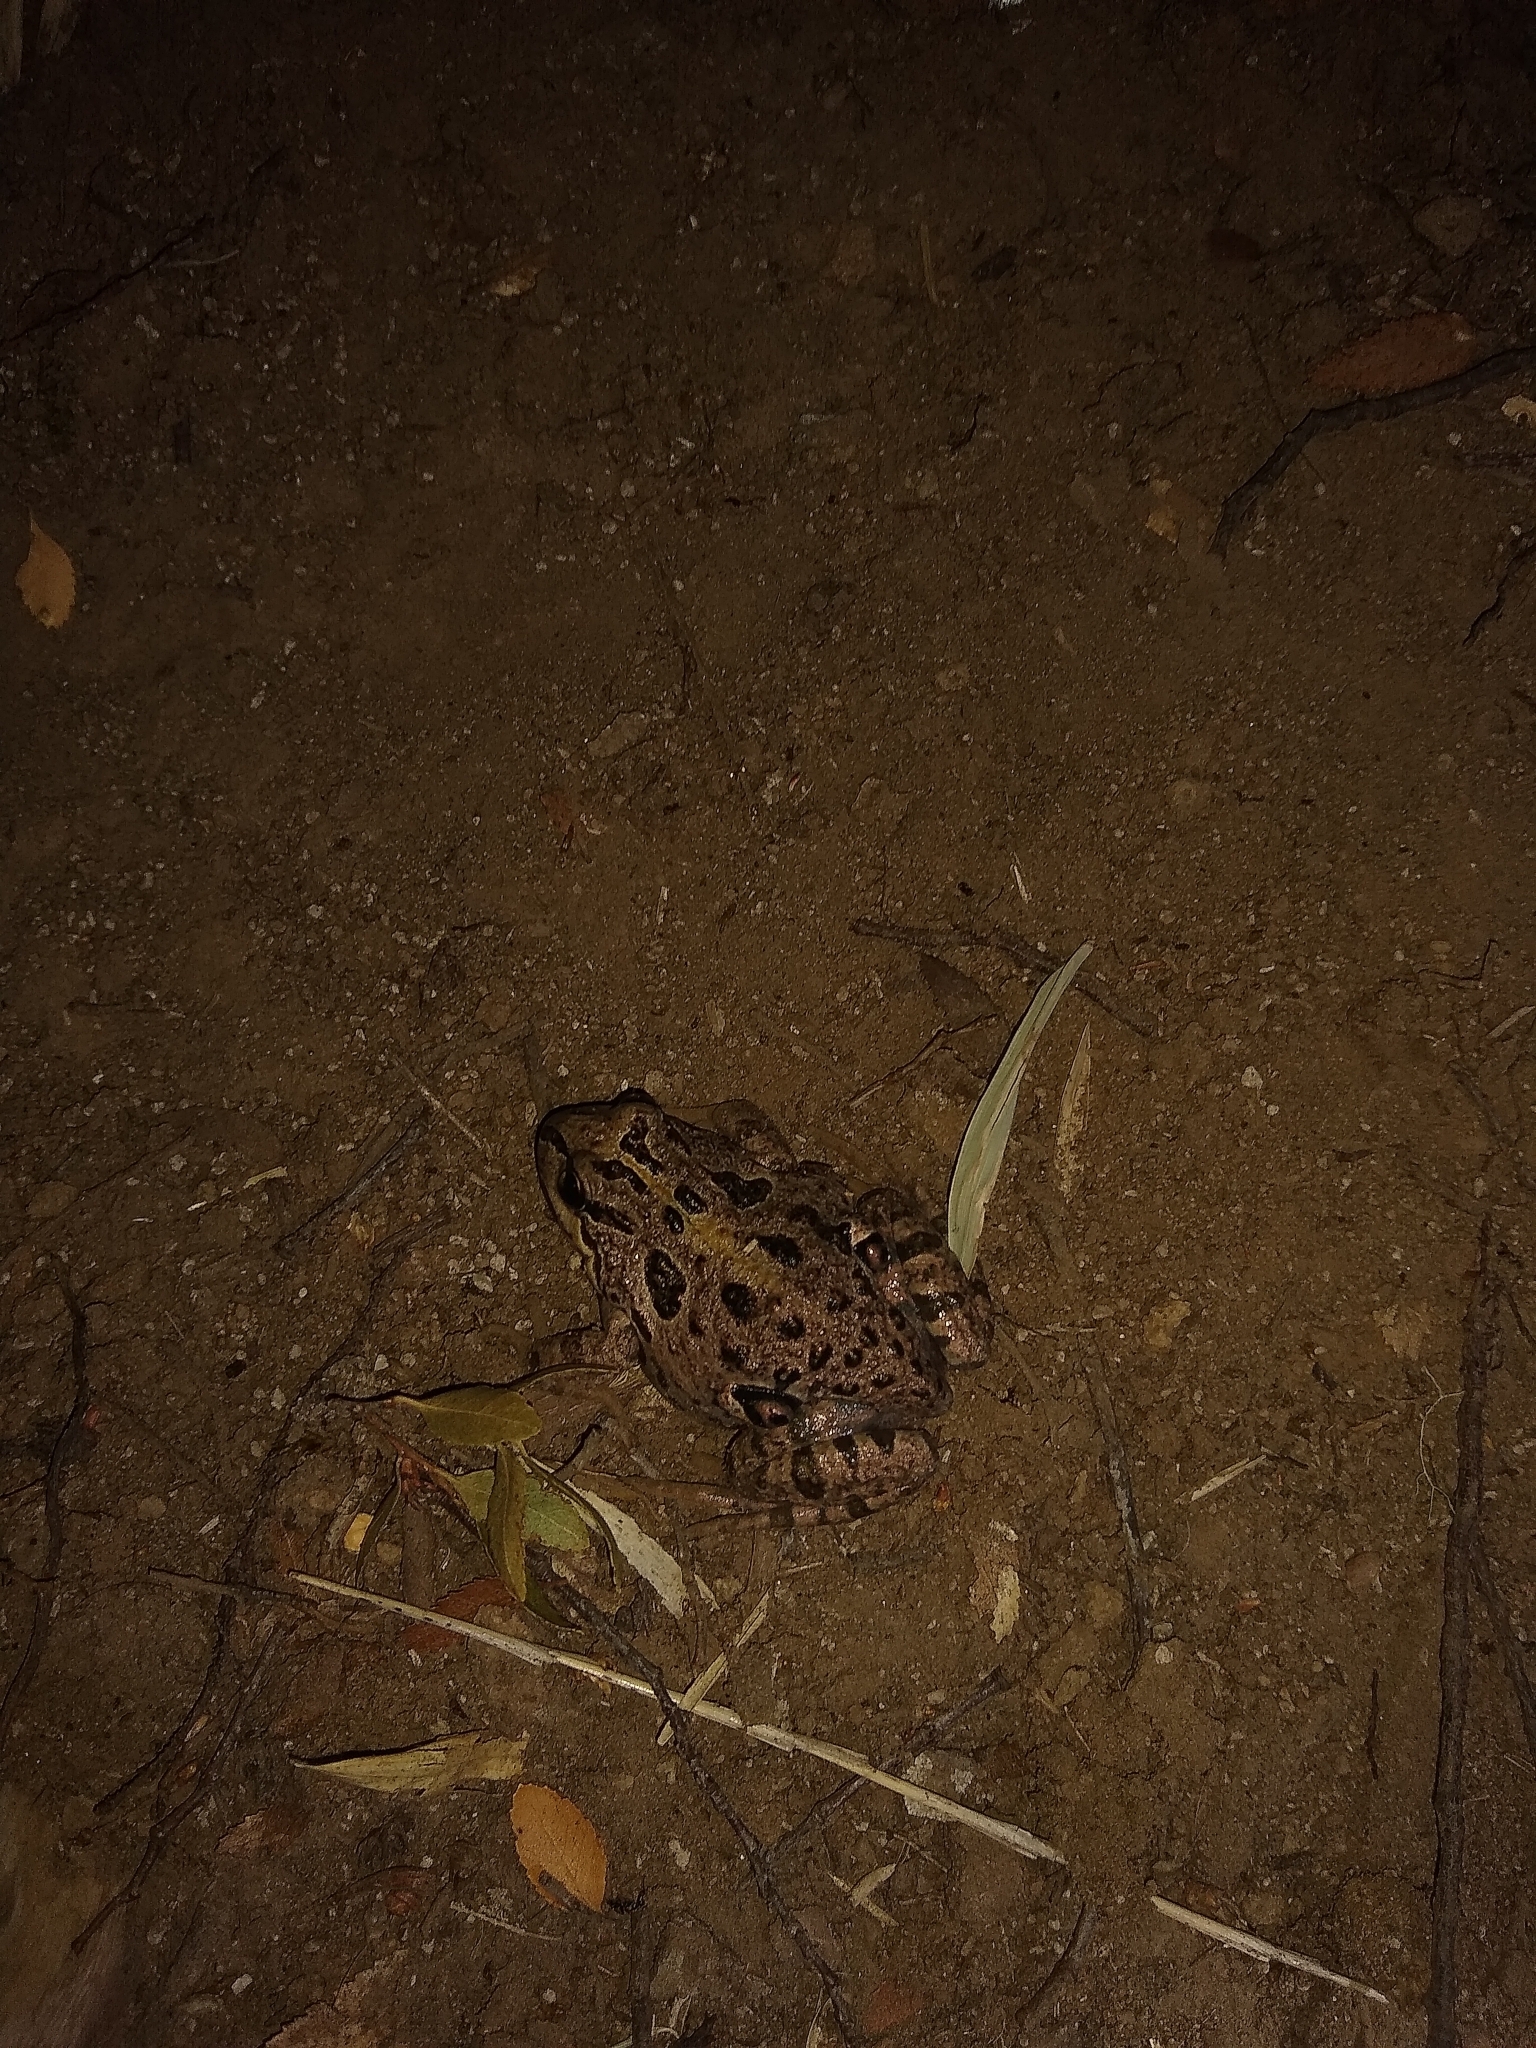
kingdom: Animalia
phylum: Chordata
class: Amphibia
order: Anura
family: Leptodactylidae
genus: Pleurodema
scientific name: Pleurodema thaul
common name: Chile four-eyed frog
